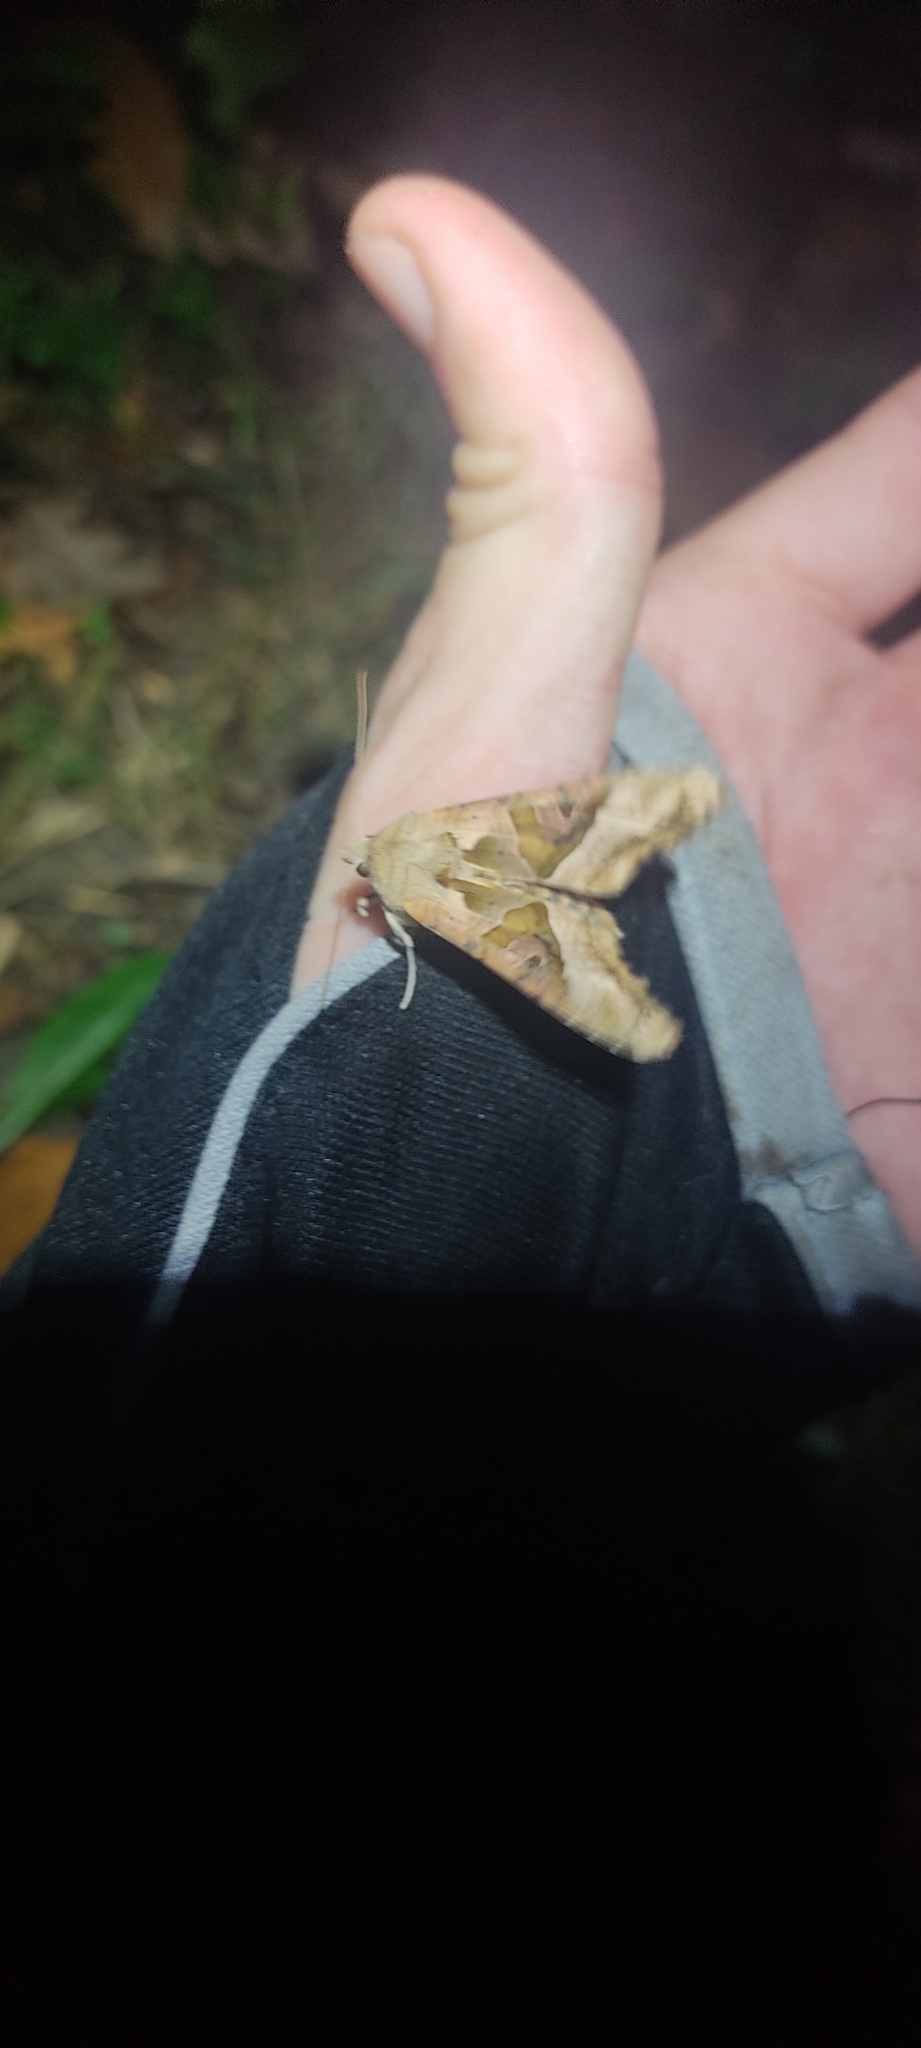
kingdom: Animalia
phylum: Arthropoda
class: Insecta
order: Lepidoptera
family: Noctuidae
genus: Phlogophora
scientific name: Phlogophora meticulosa
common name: Angle shades
